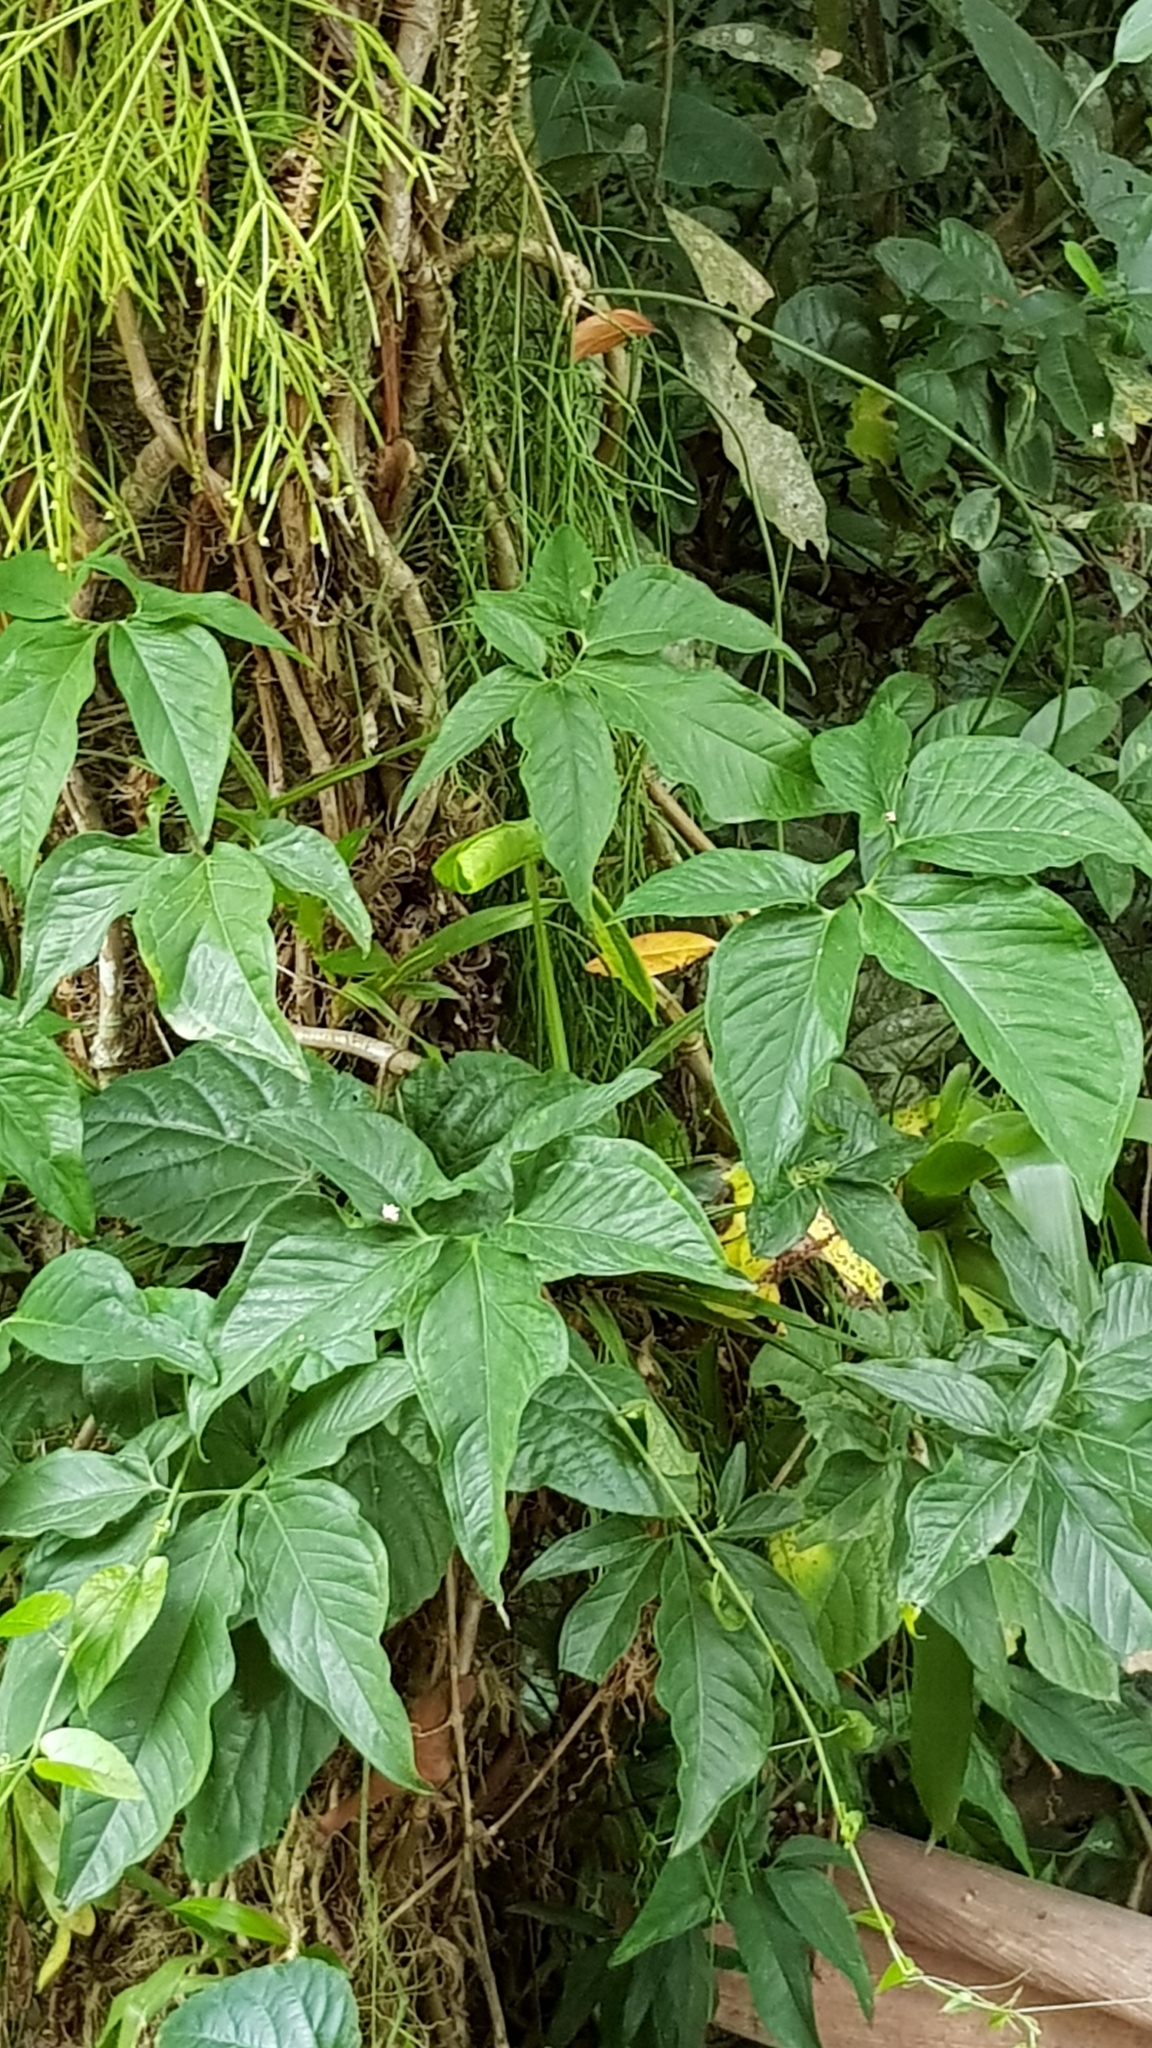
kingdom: Plantae
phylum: Tracheophyta
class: Liliopsida
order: Alismatales
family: Araceae
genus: Syngonium
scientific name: Syngonium angustatum
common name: Fivefingers
